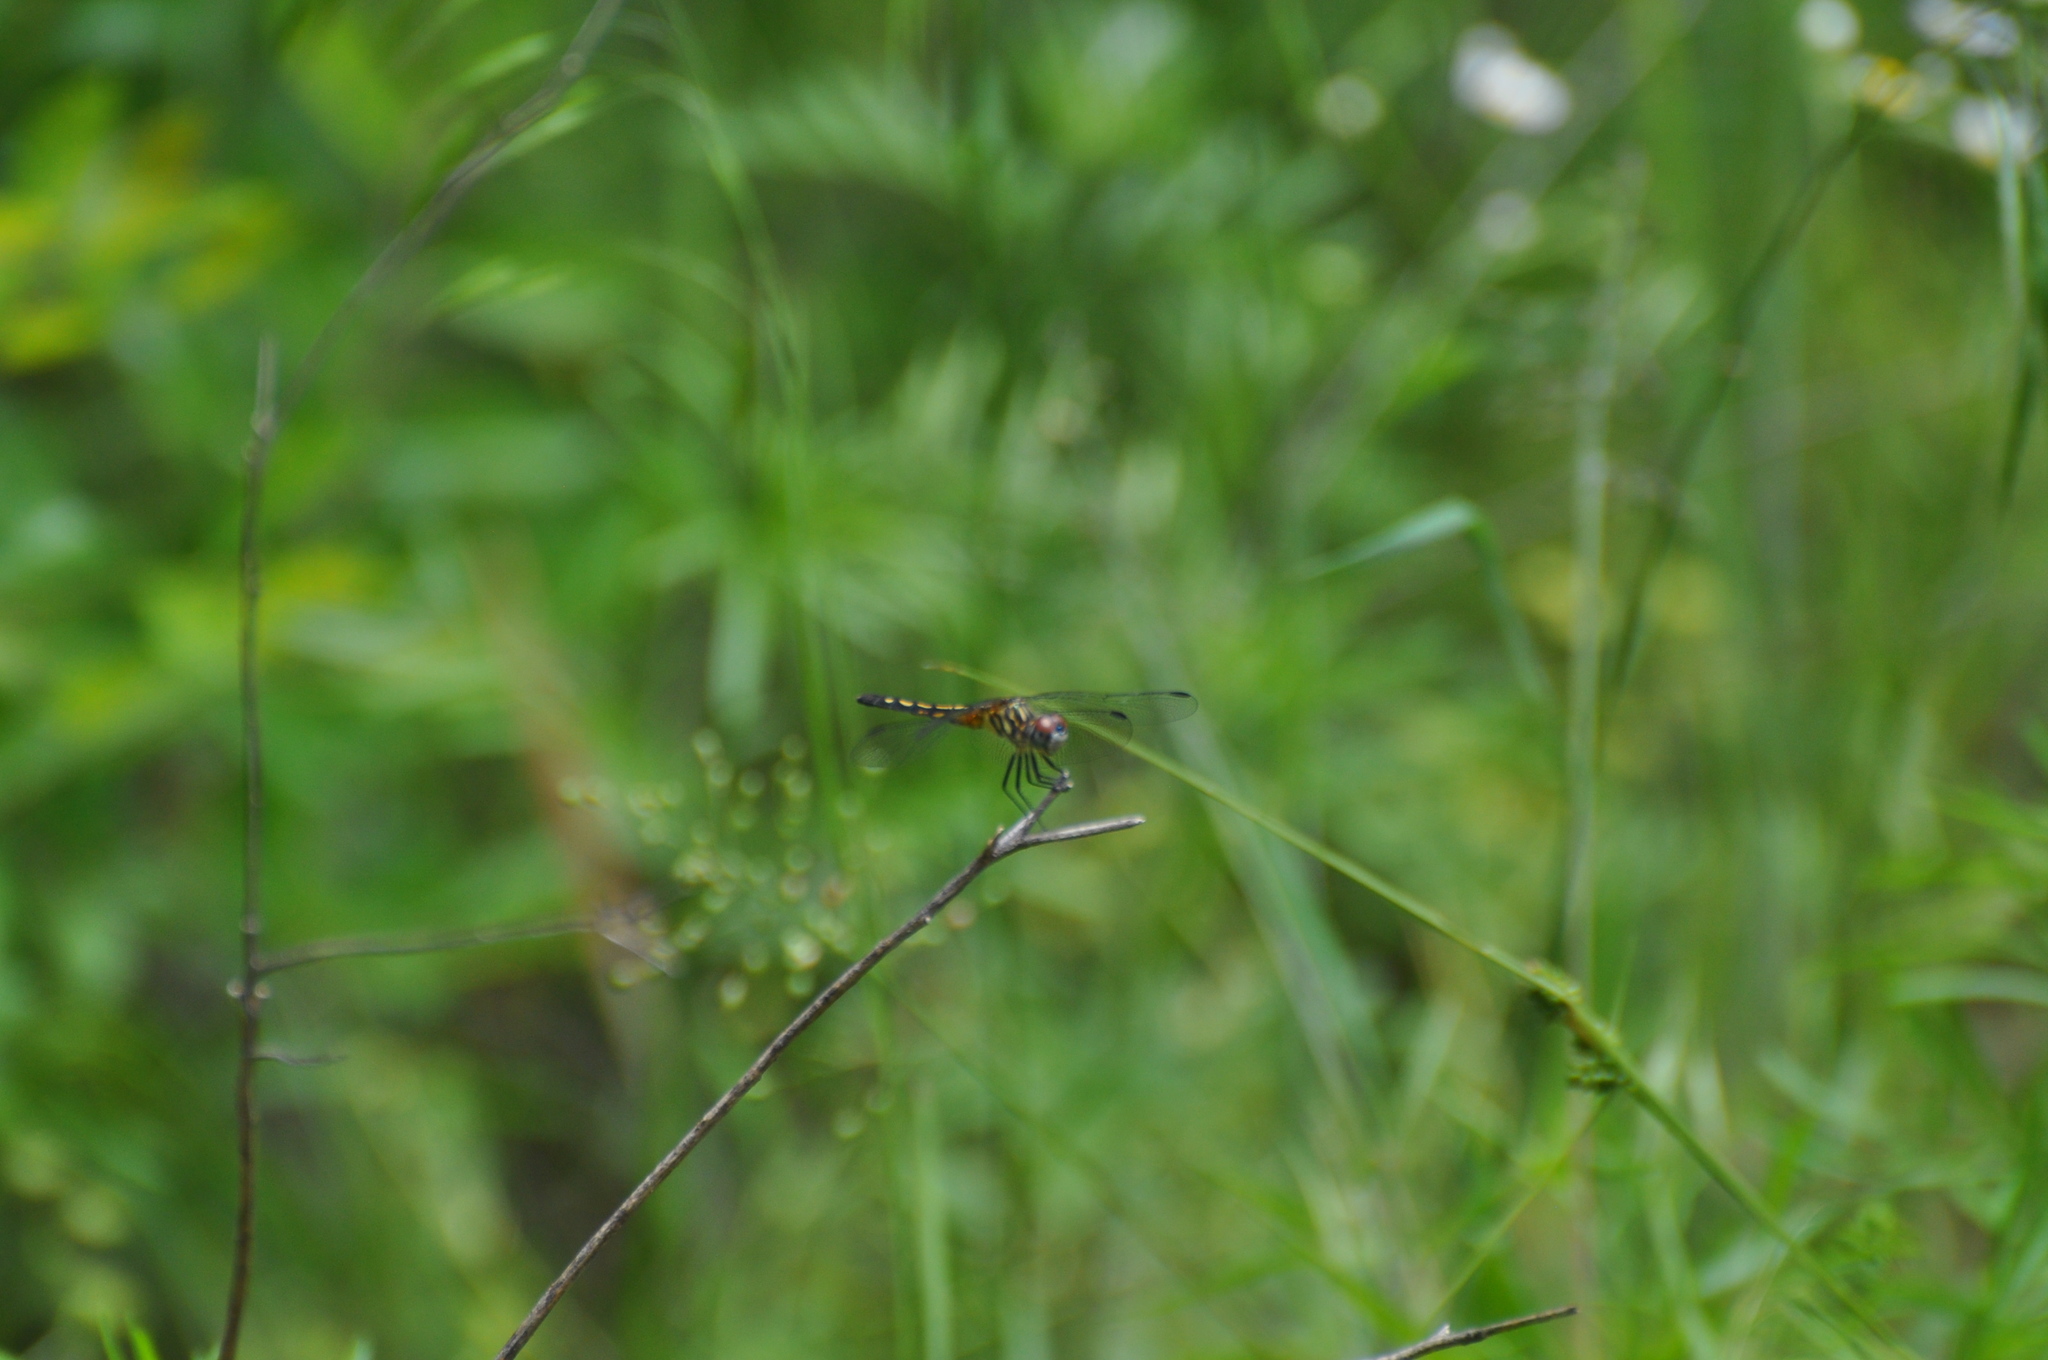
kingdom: Animalia
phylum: Arthropoda
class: Insecta
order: Odonata
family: Libellulidae
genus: Pachydiplax
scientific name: Pachydiplax longipennis
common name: Blue dasher
